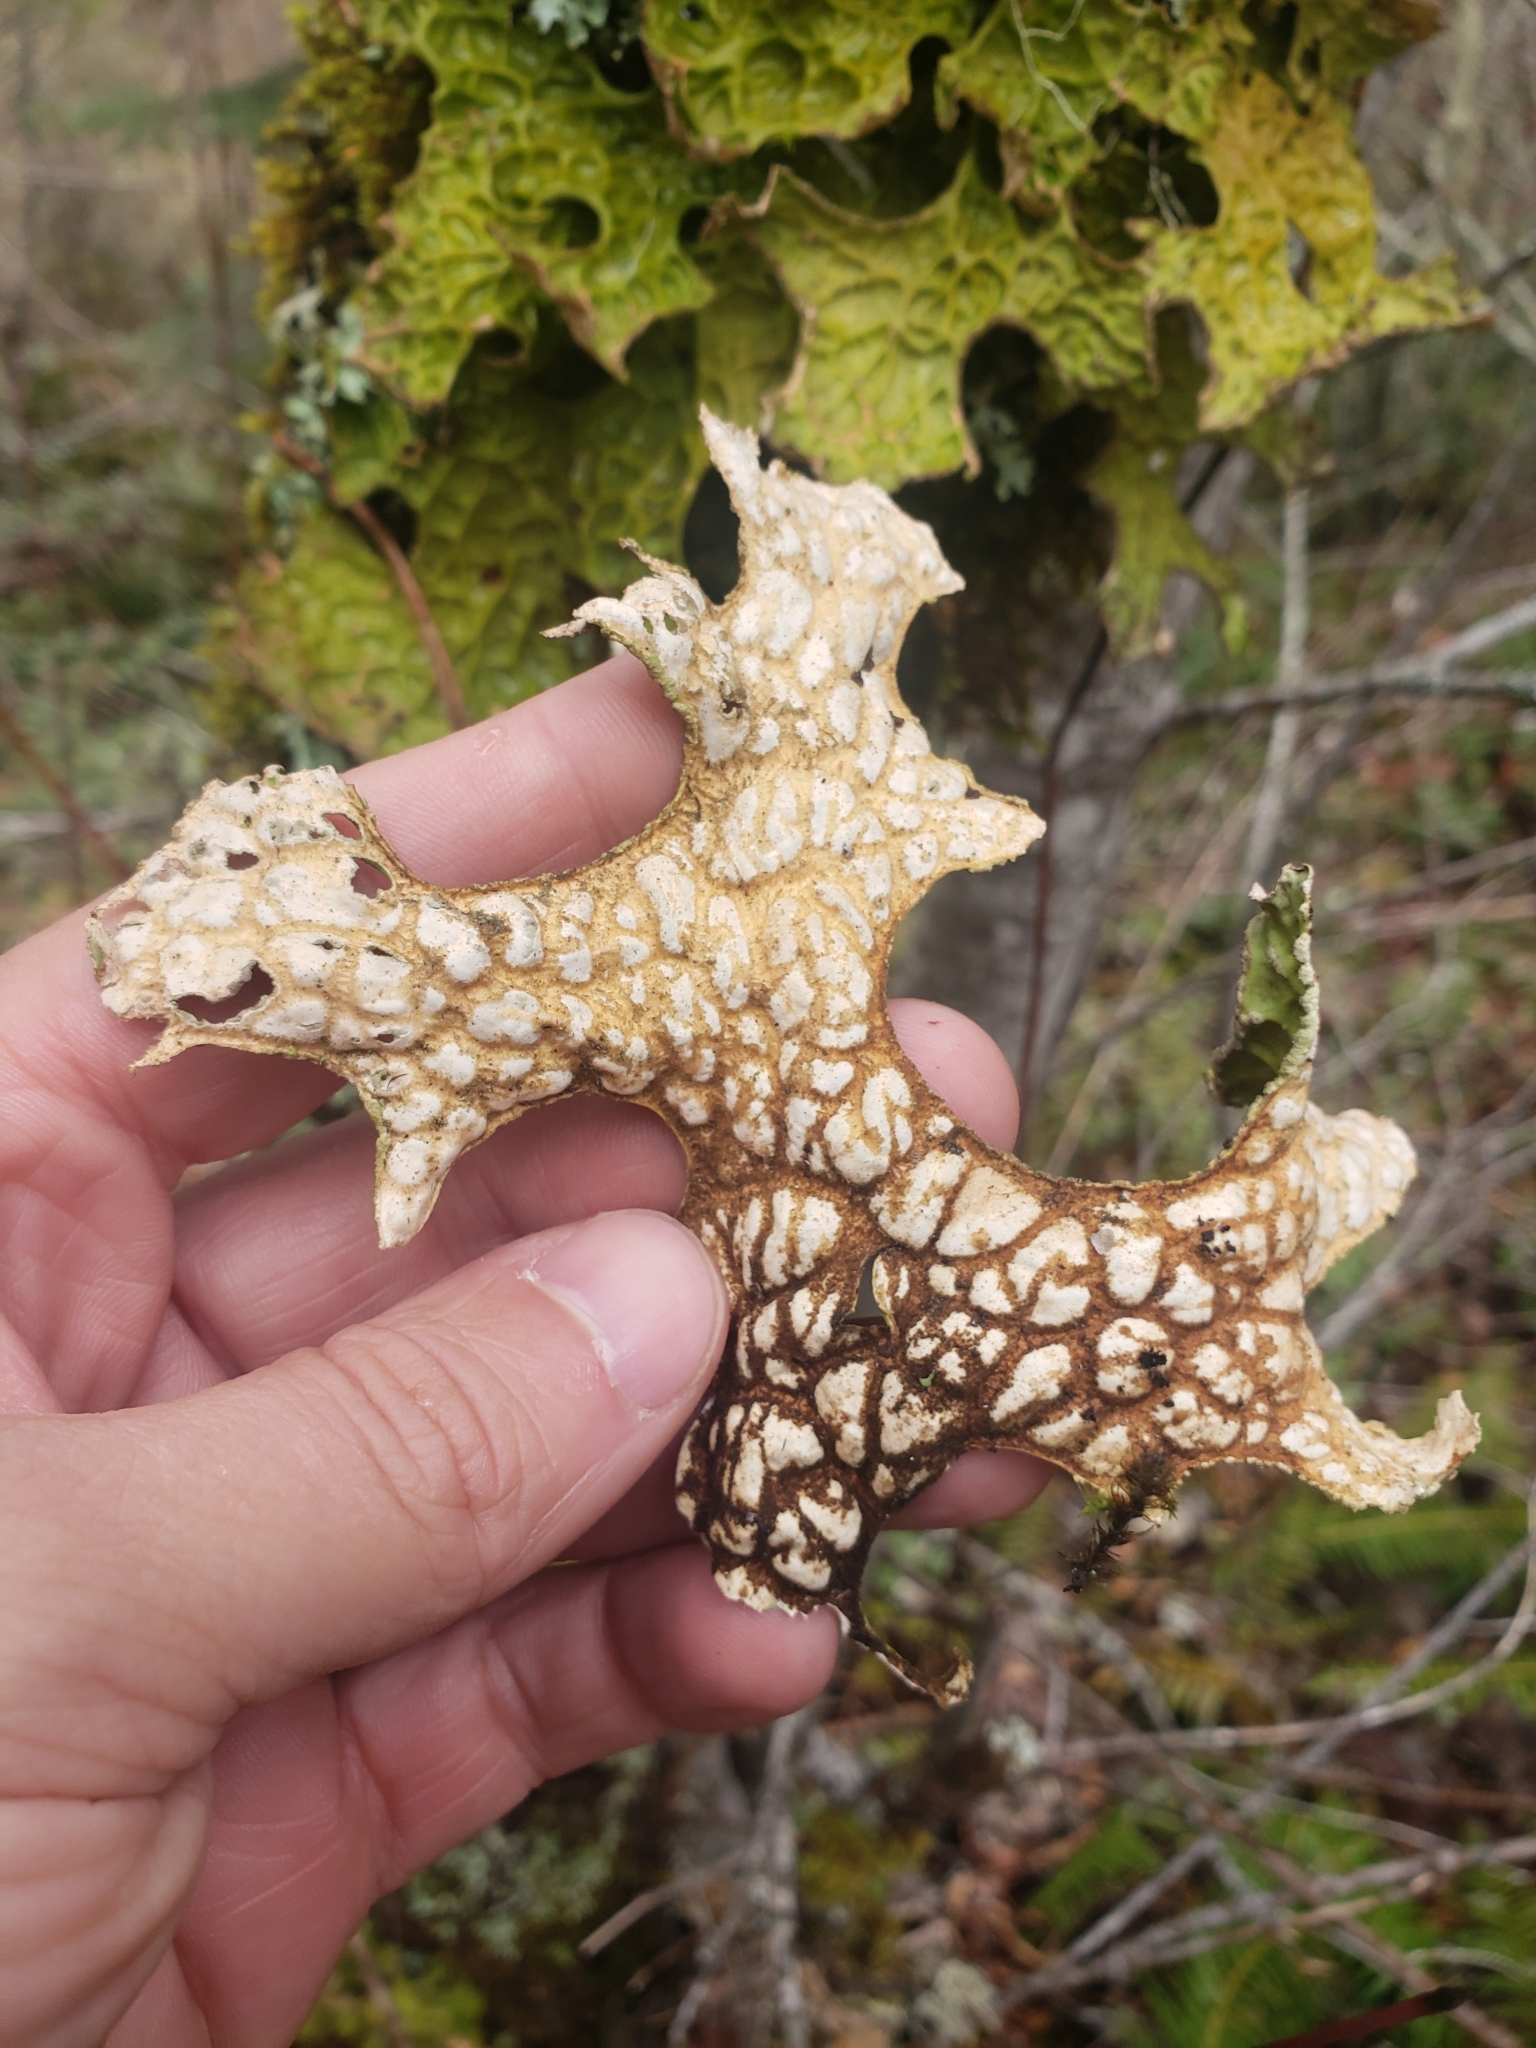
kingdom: Fungi
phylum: Ascomycota
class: Lecanoromycetes
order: Peltigerales
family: Lobariaceae
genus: Lobaria
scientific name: Lobaria pulmonaria
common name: Lungwort
